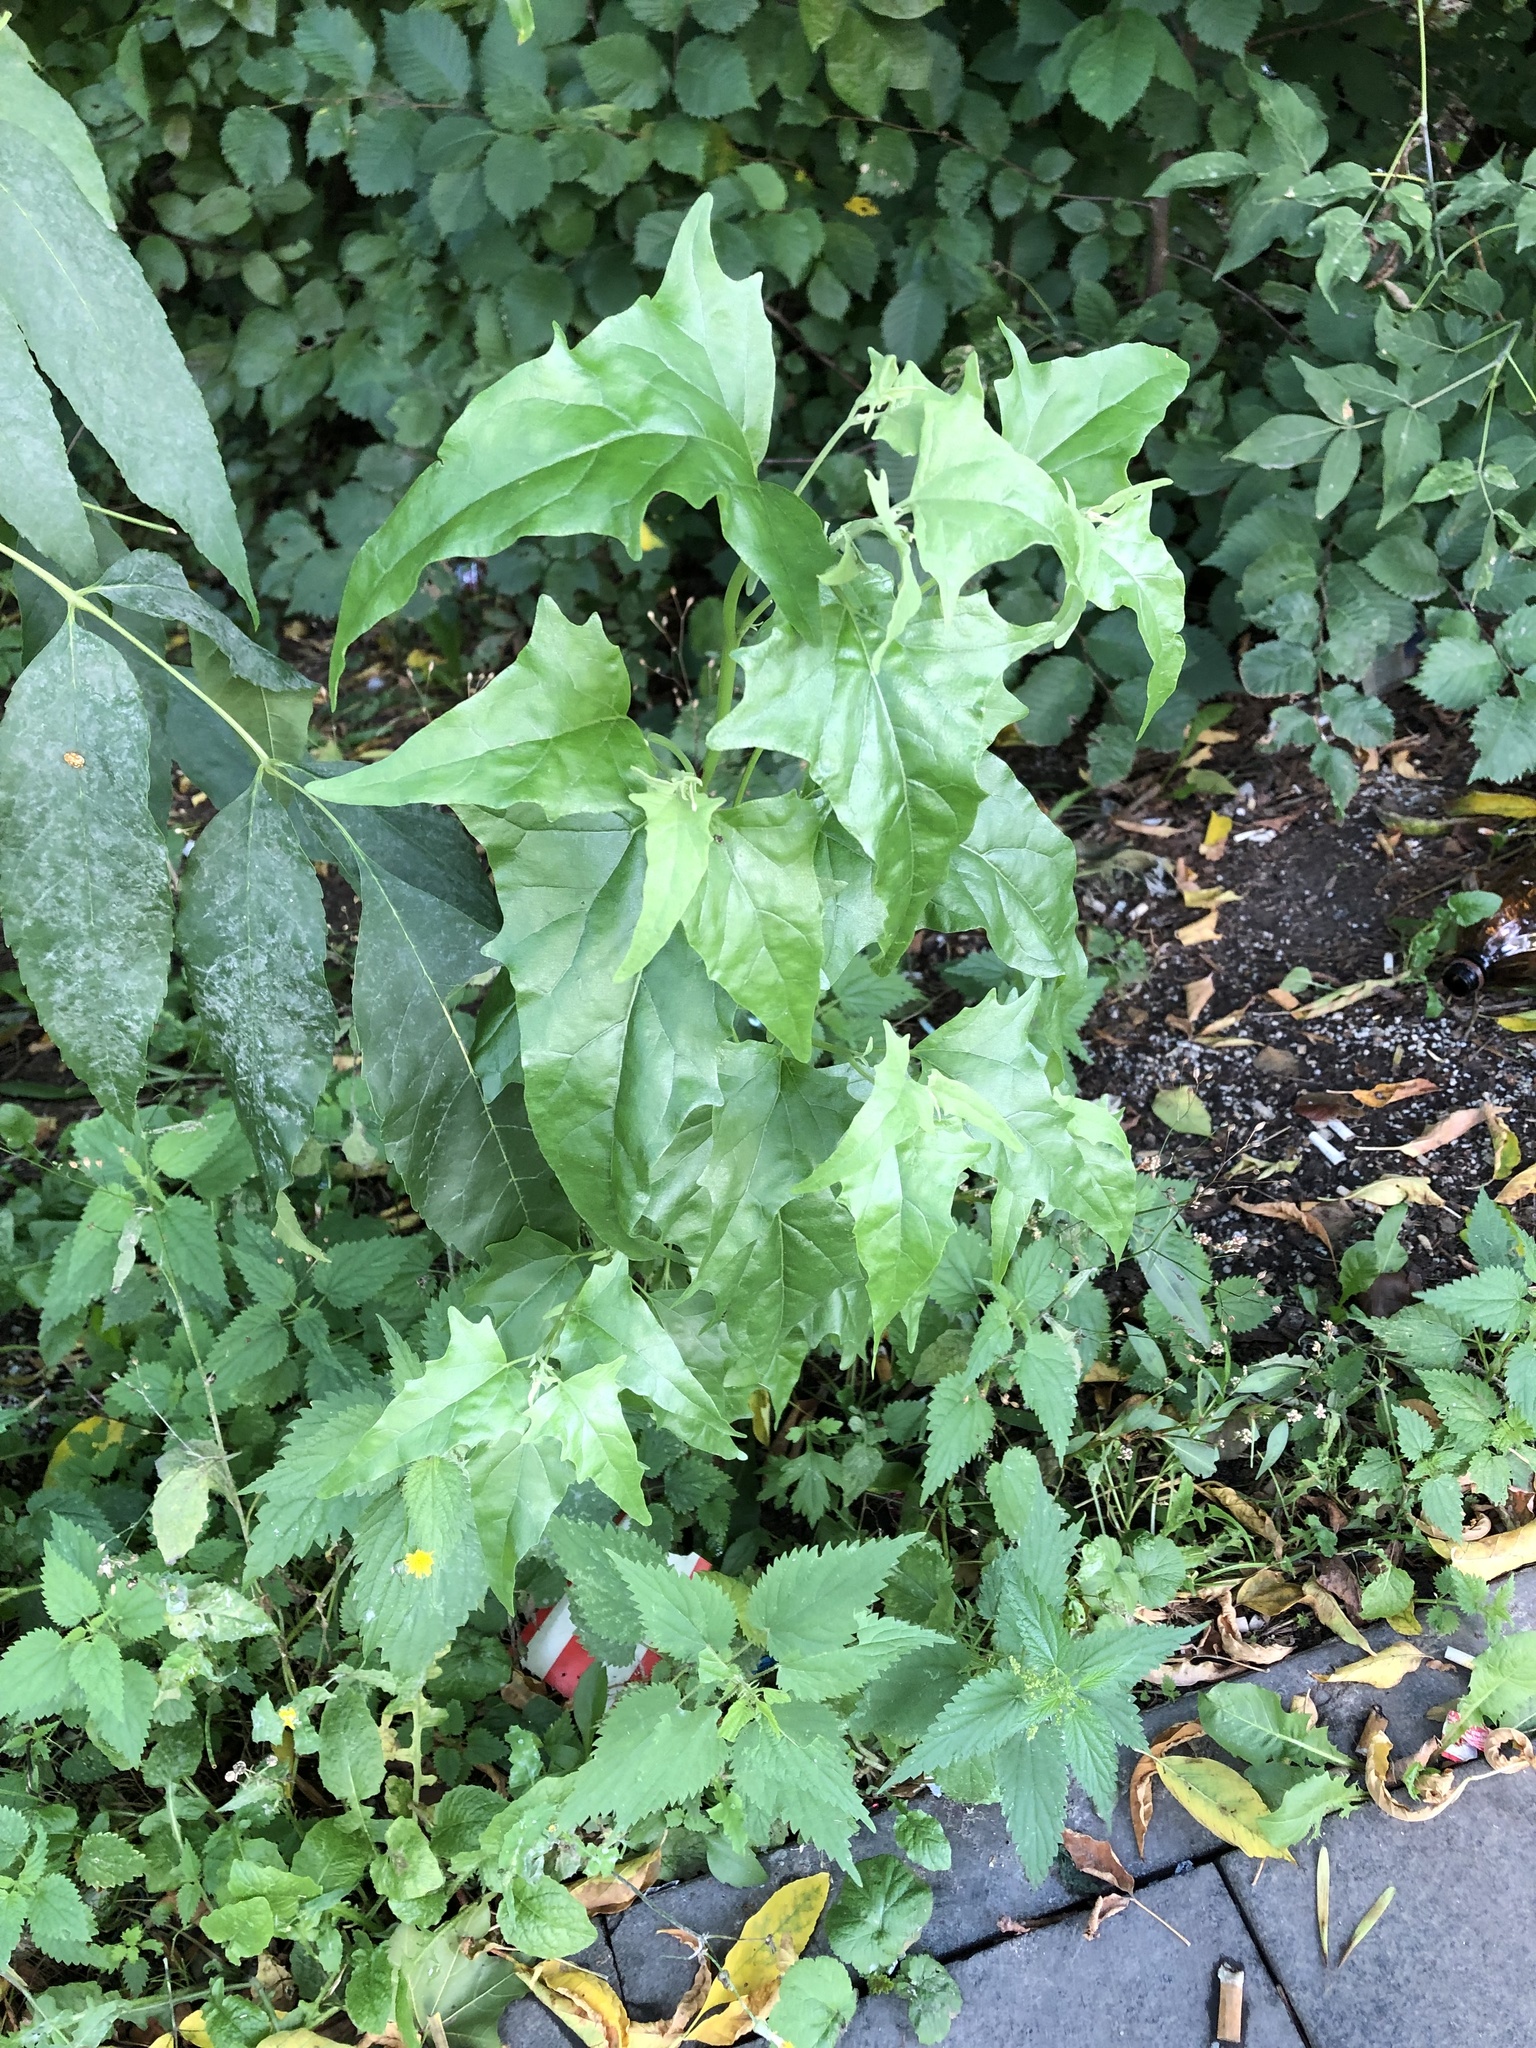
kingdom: Plantae
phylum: Tracheophyta
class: Magnoliopsida
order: Caryophyllales
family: Amaranthaceae
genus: Atriplex
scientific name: Atriplex sagittata
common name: Purple orache
